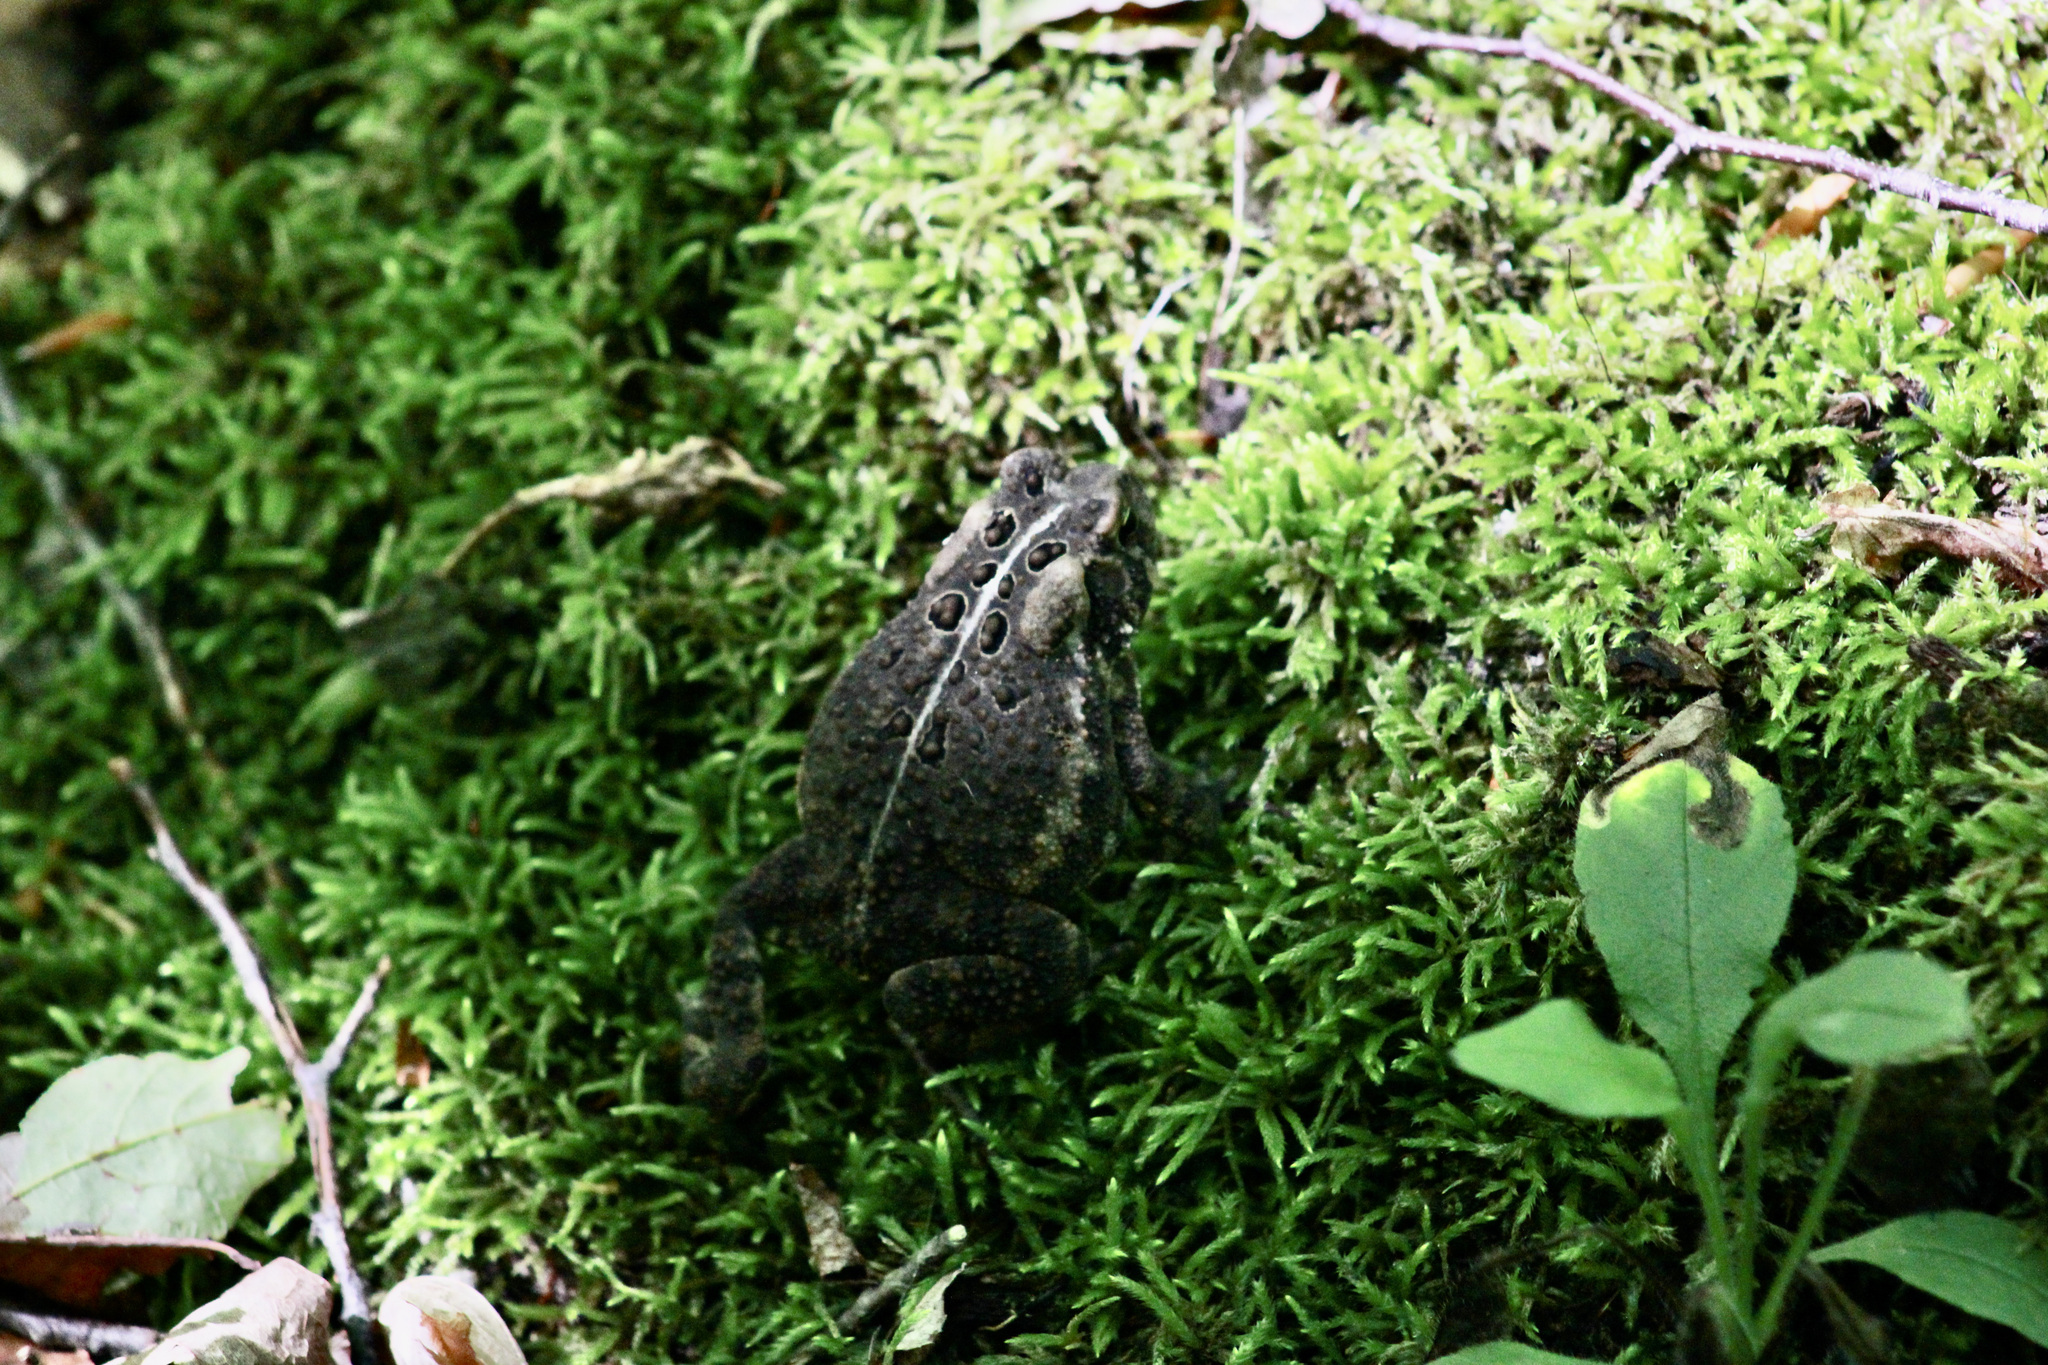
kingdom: Animalia
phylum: Chordata
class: Amphibia
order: Anura
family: Bufonidae
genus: Anaxyrus
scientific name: Anaxyrus americanus
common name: American toad
